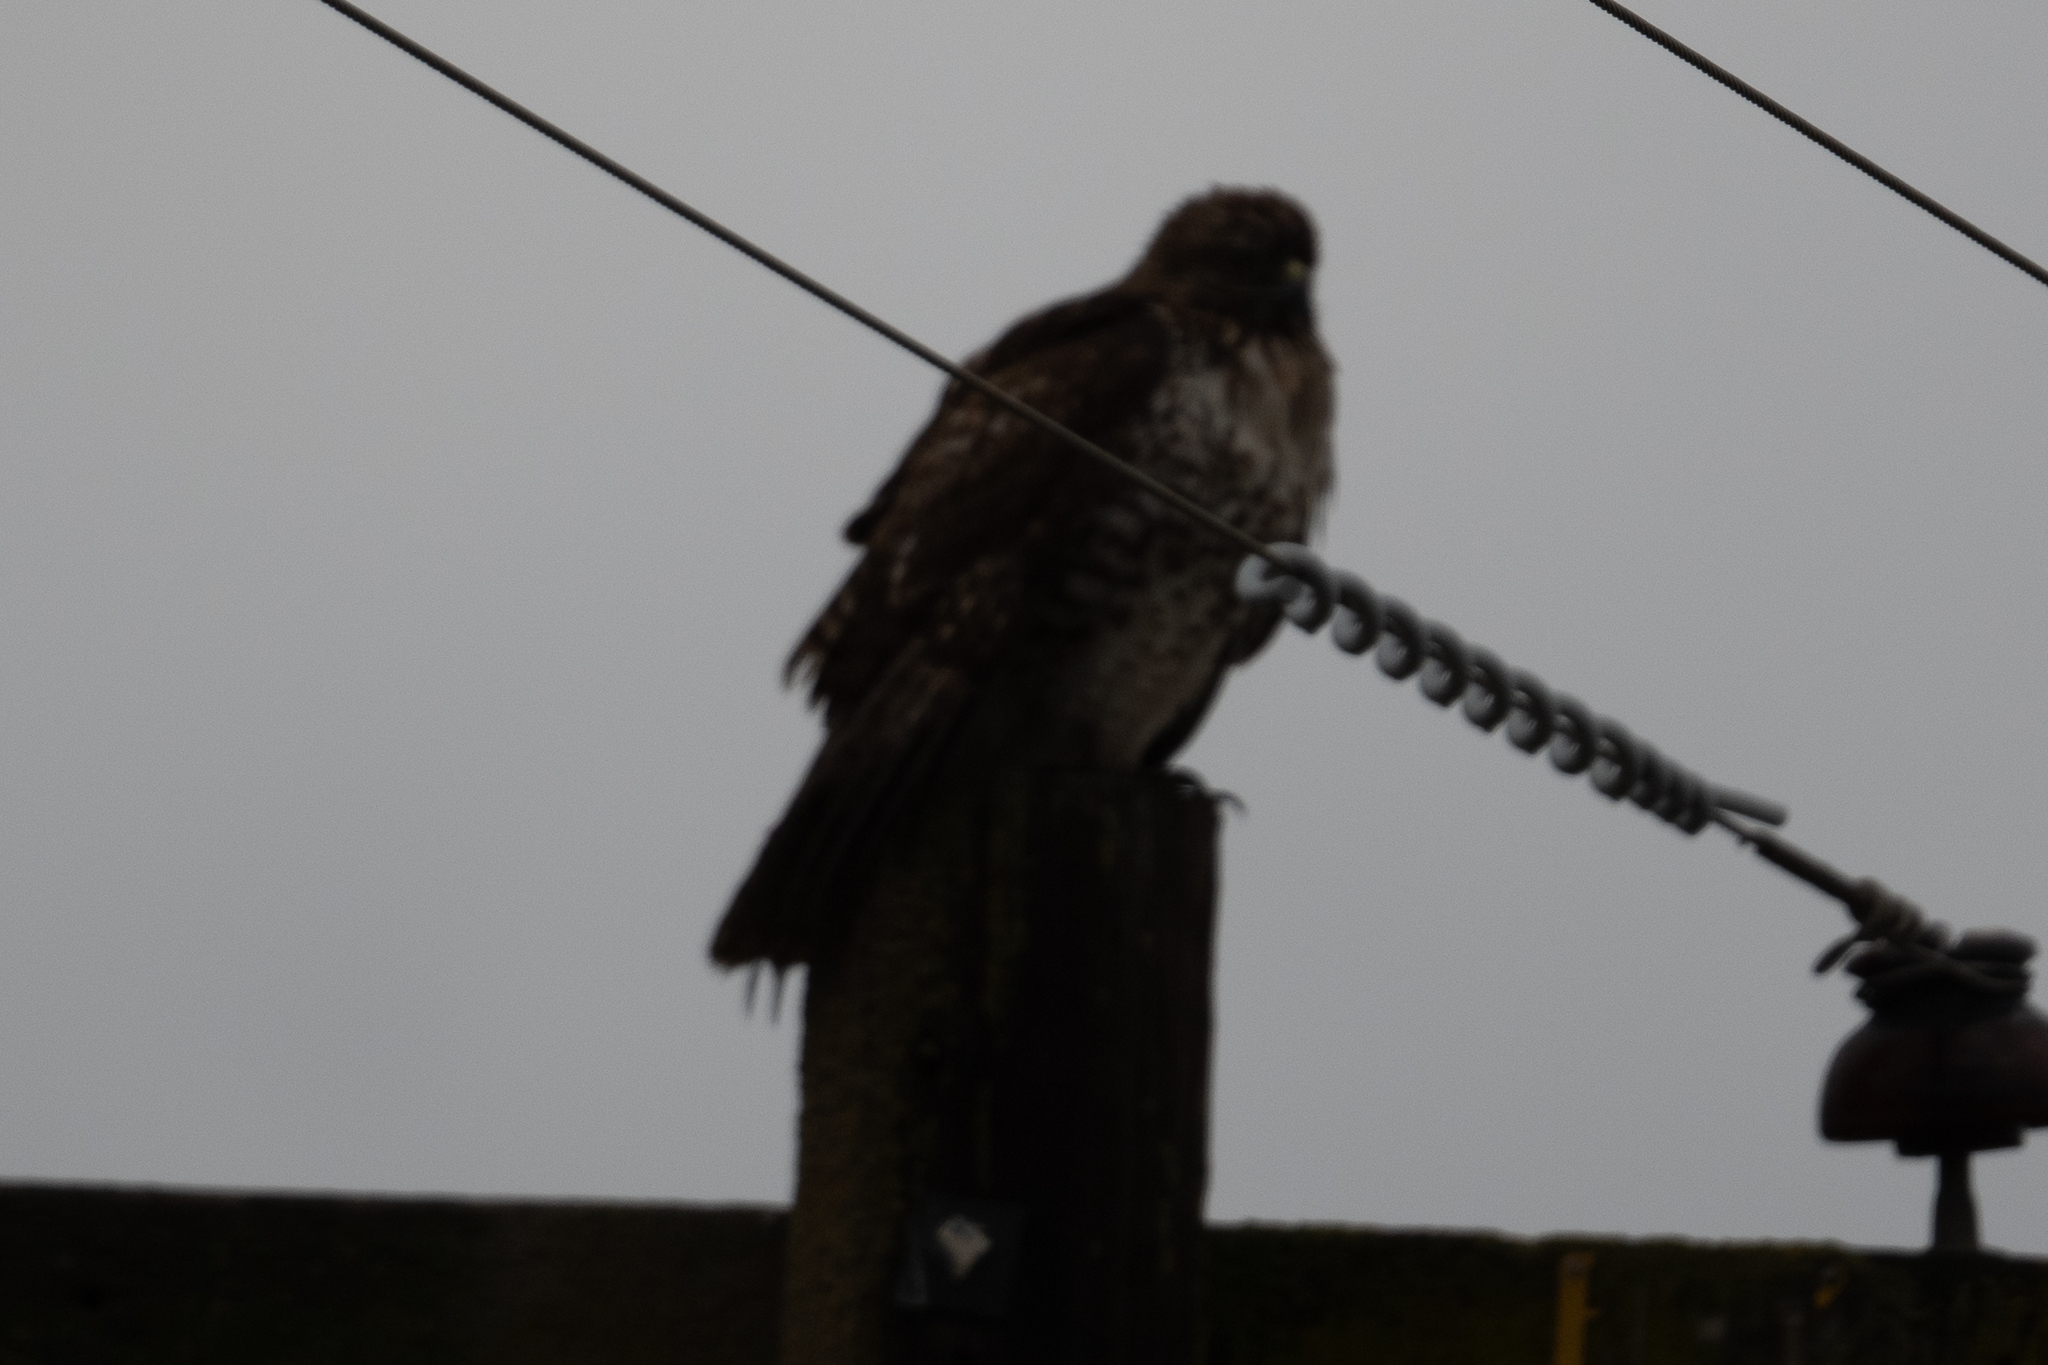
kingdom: Animalia
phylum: Chordata
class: Aves
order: Accipitriformes
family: Accipitridae
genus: Buteo
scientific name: Buteo jamaicensis
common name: Red-tailed hawk
